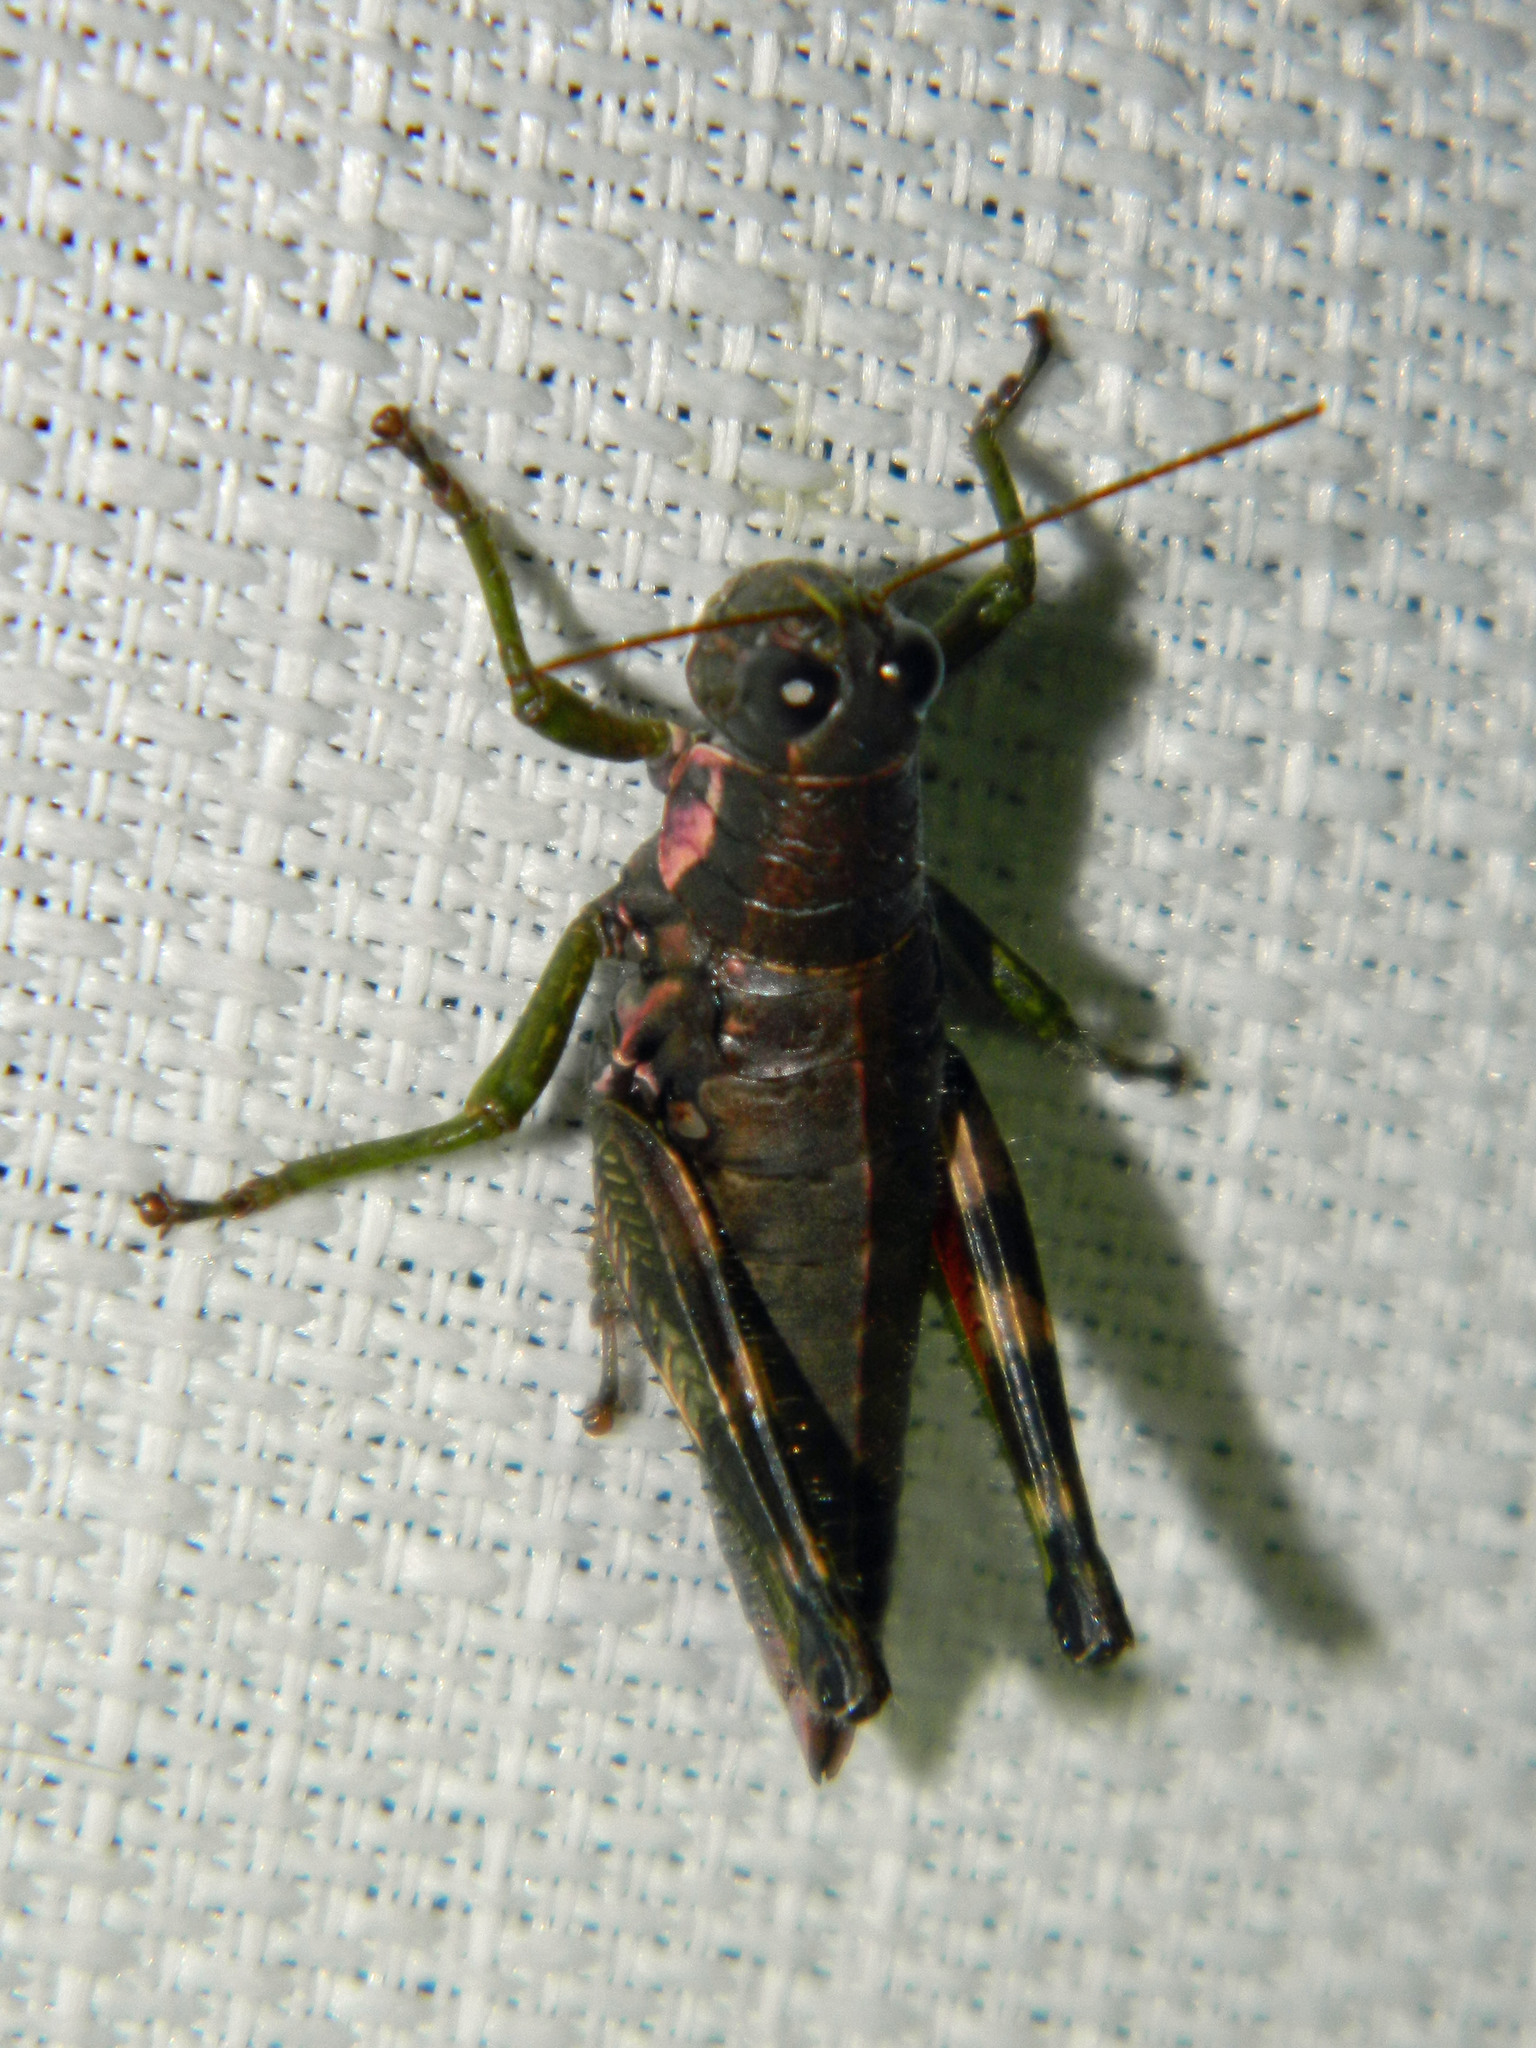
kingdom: Animalia
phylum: Arthropoda
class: Insecta
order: Orthoptera
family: Acrididae
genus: Booneacris
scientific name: Booneacris glacialis
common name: Wingless mountain grasshopper
